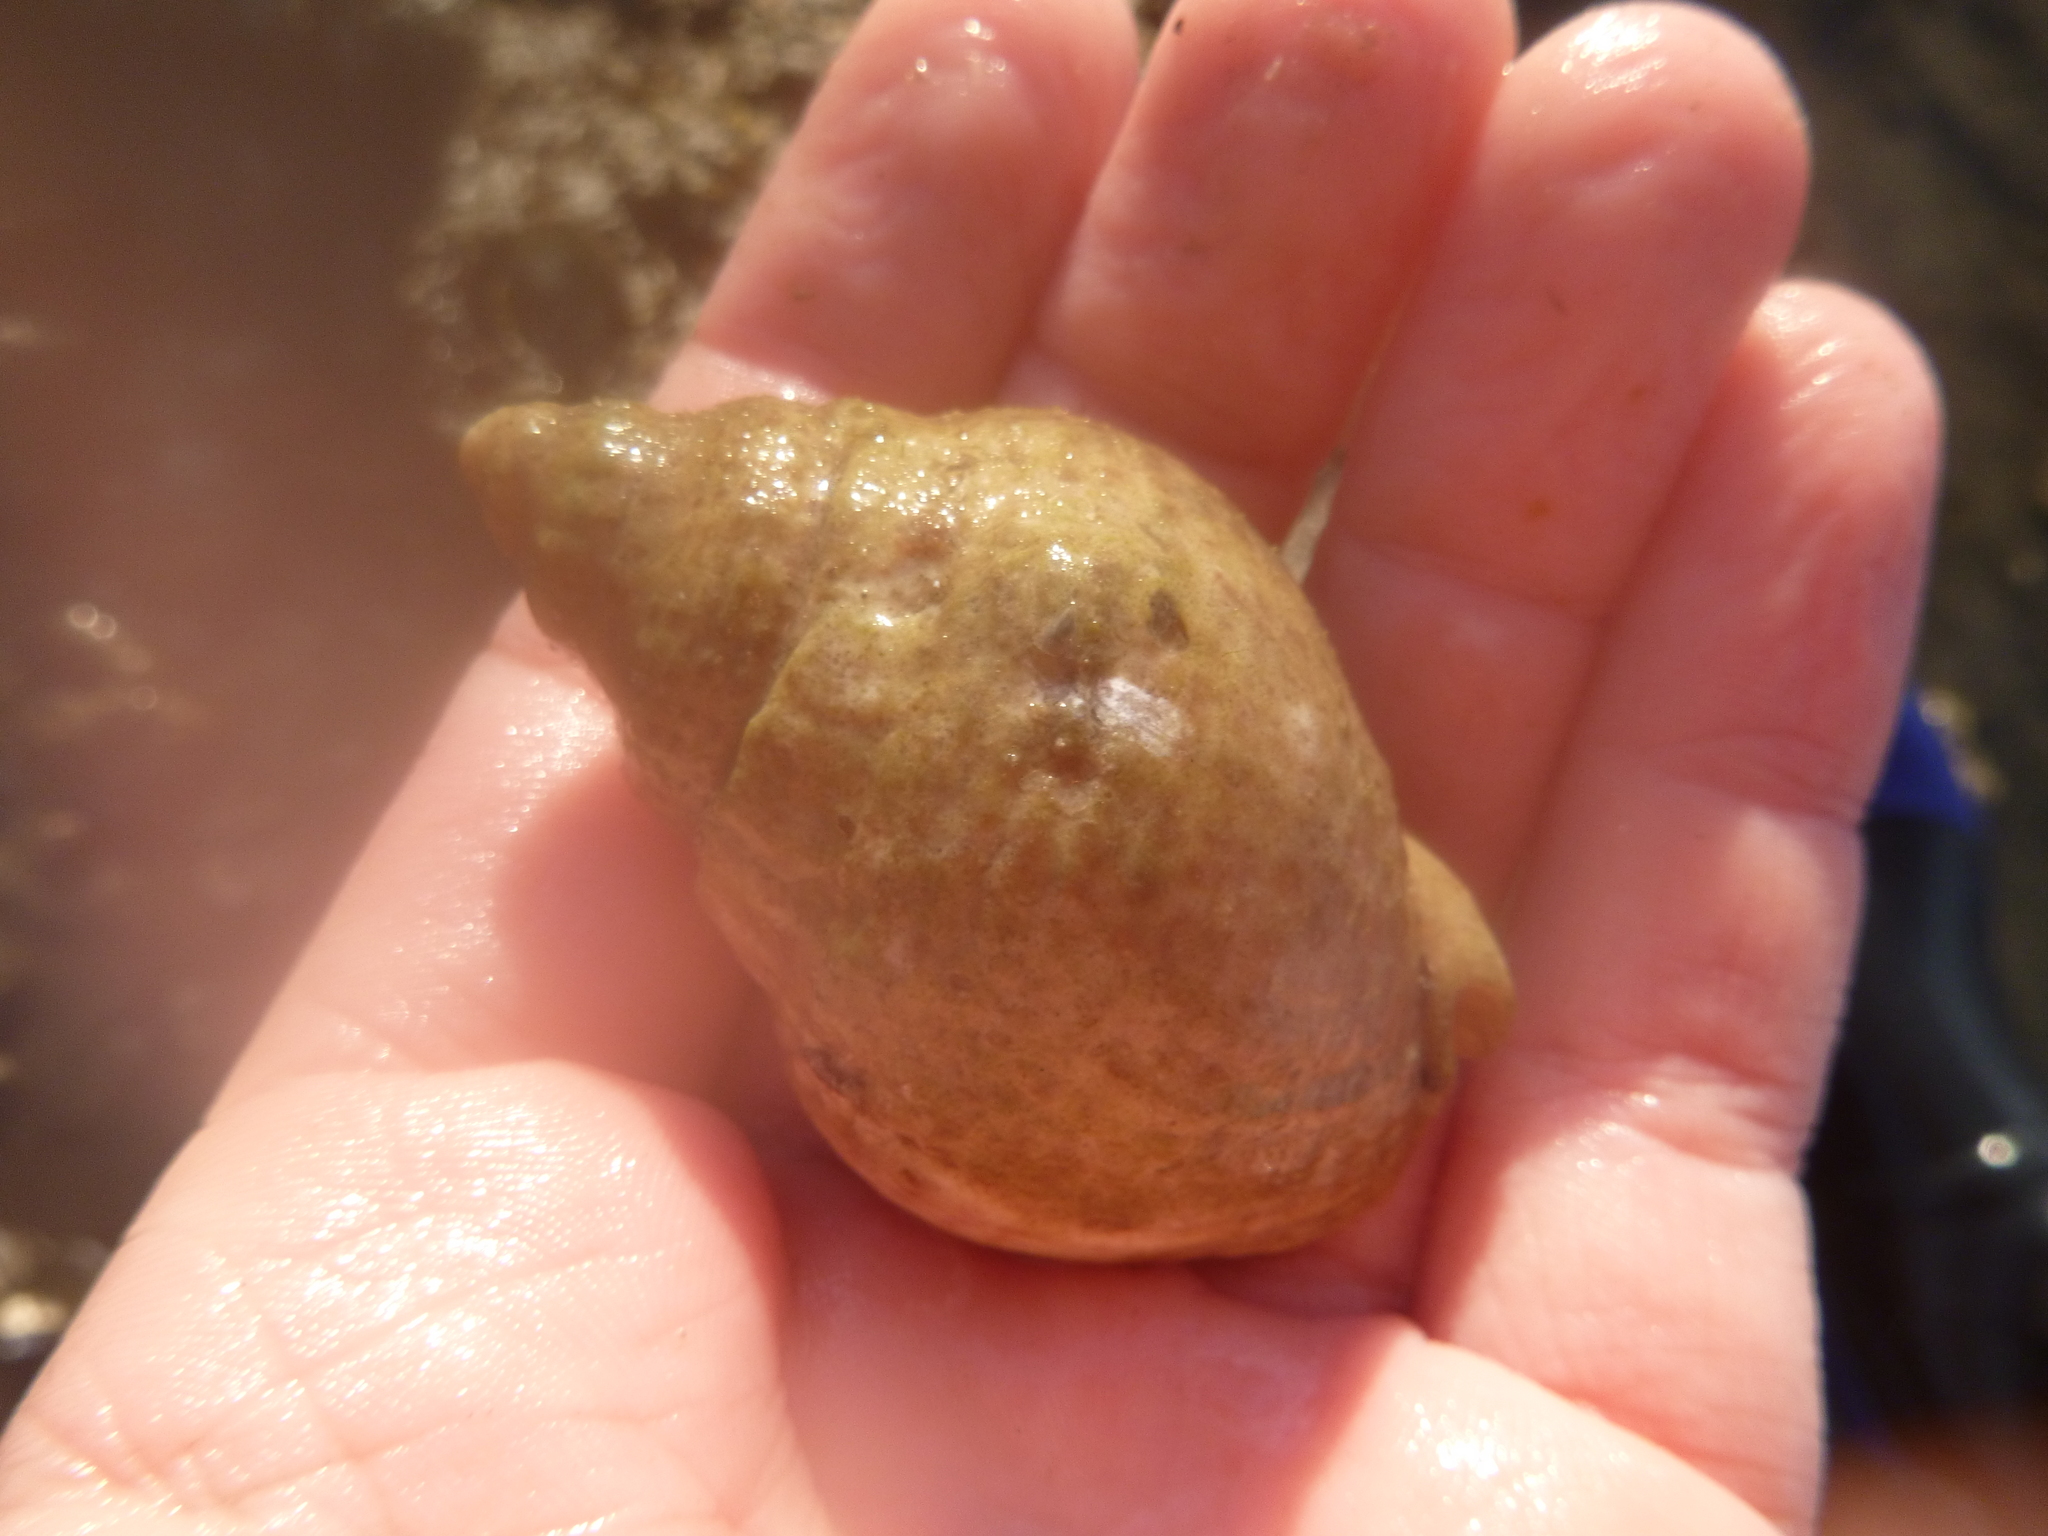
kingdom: Animalia
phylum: Mollusca
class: Gastropoda
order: Neogastropoda
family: Cominellidae
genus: Cominella
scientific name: Cominella adspersa
